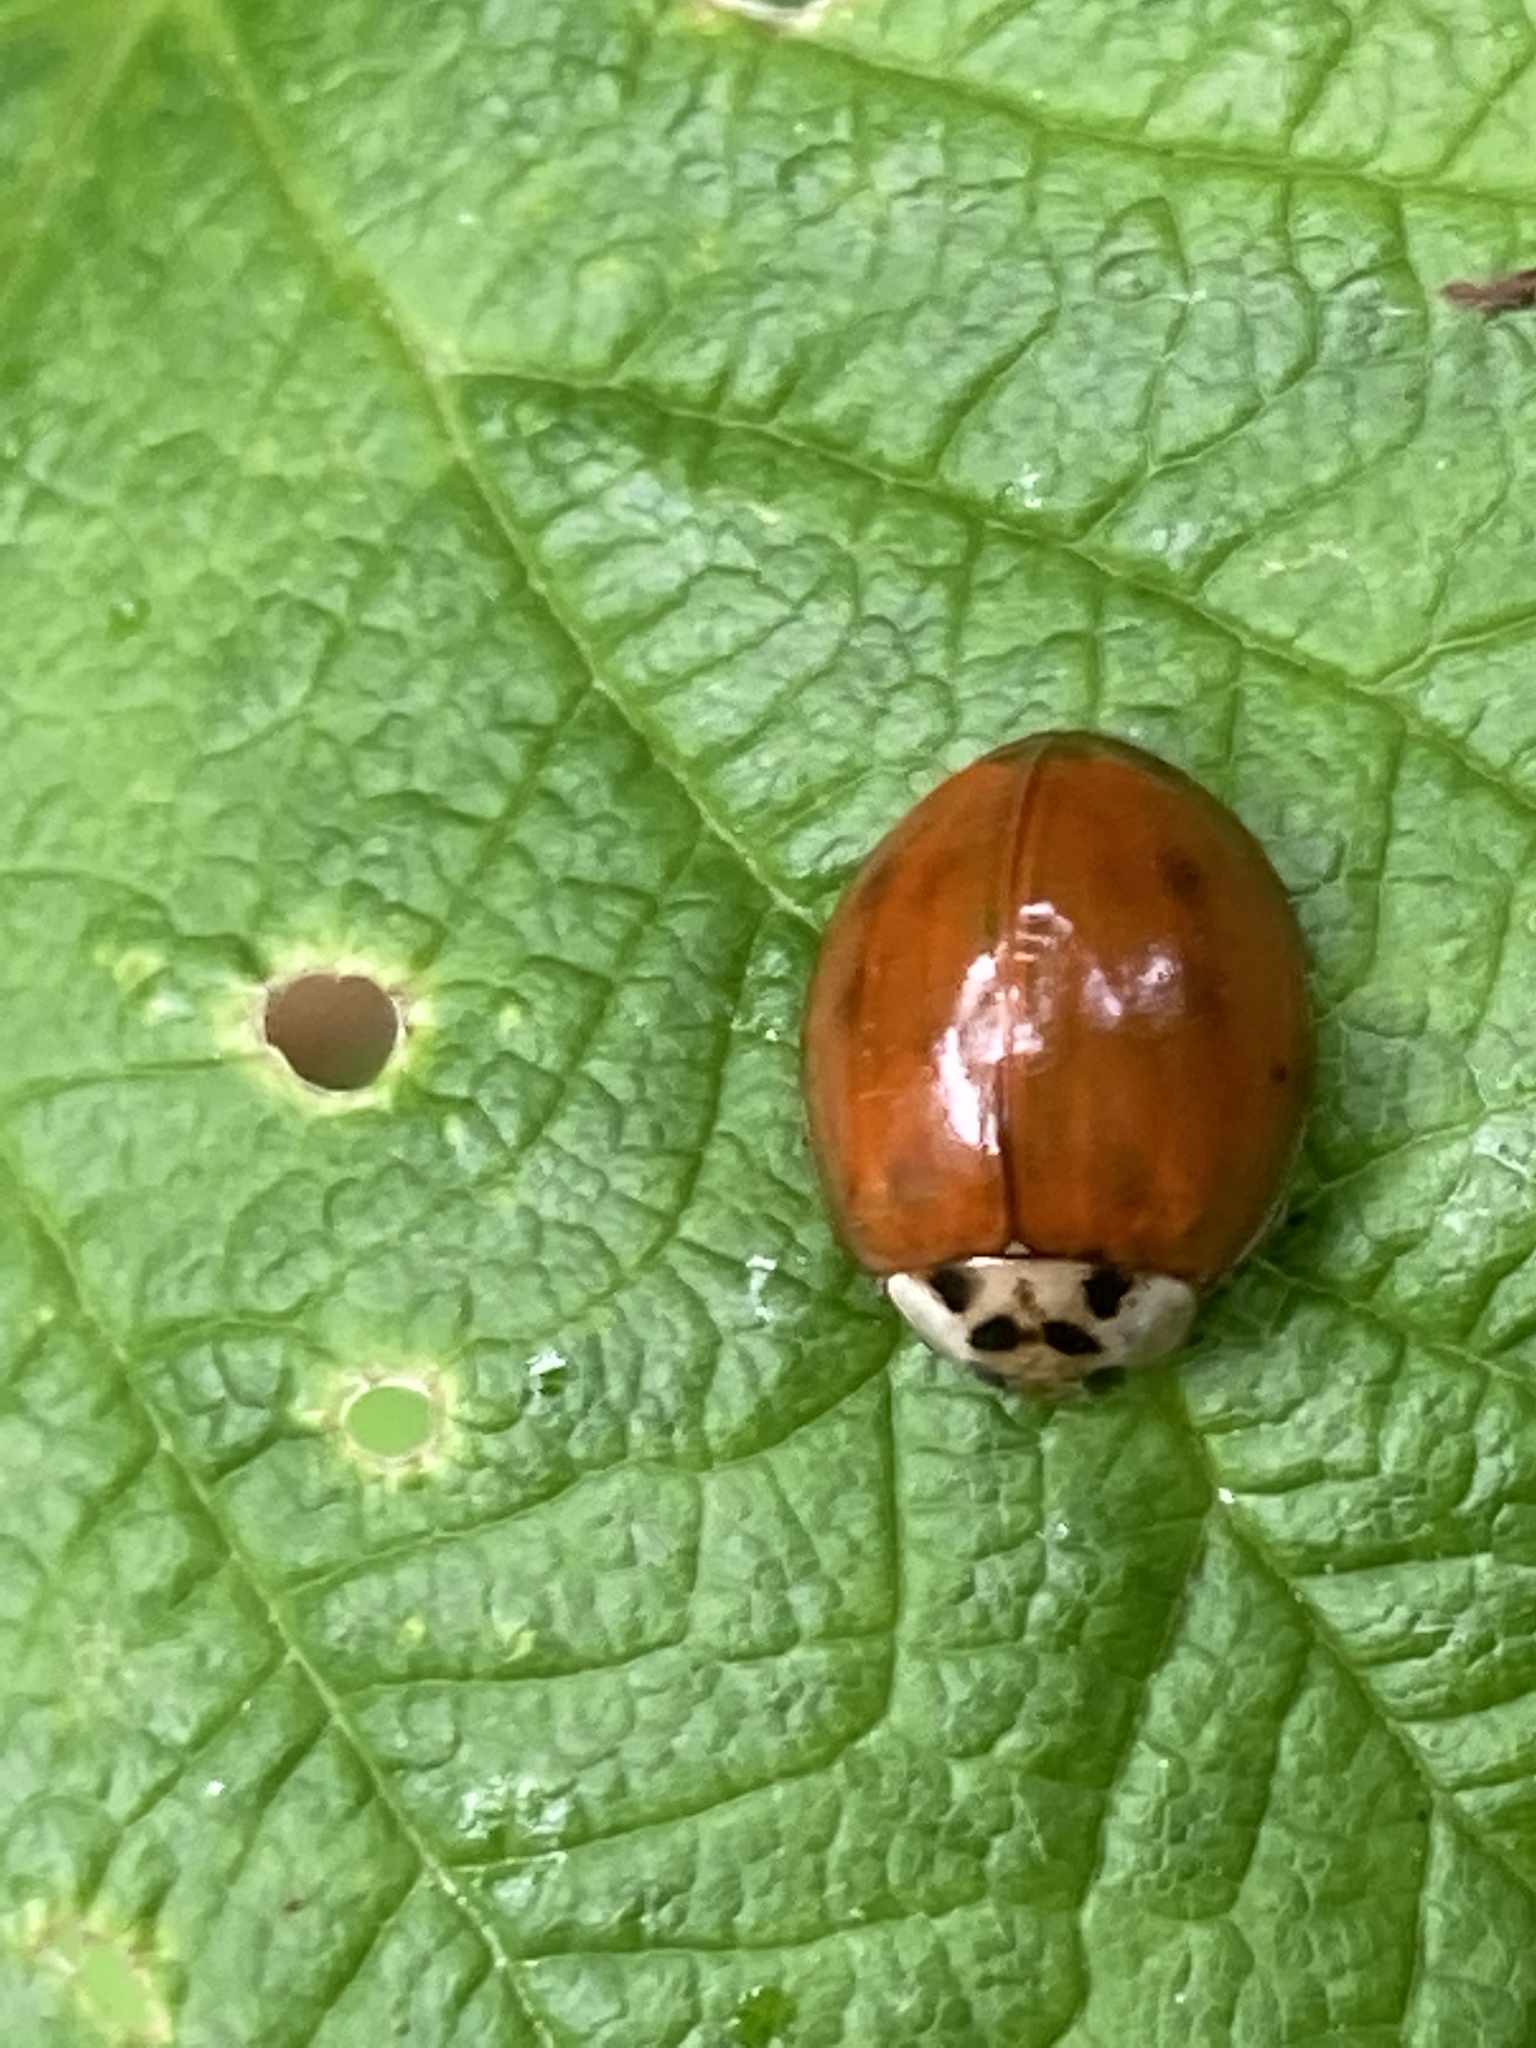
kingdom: Animalia
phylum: Arthropoda
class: Insecta
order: Coleoptera
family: Coccinellidae
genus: Harmonia
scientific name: Harmonia axyridis
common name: Harlequin ladybird
